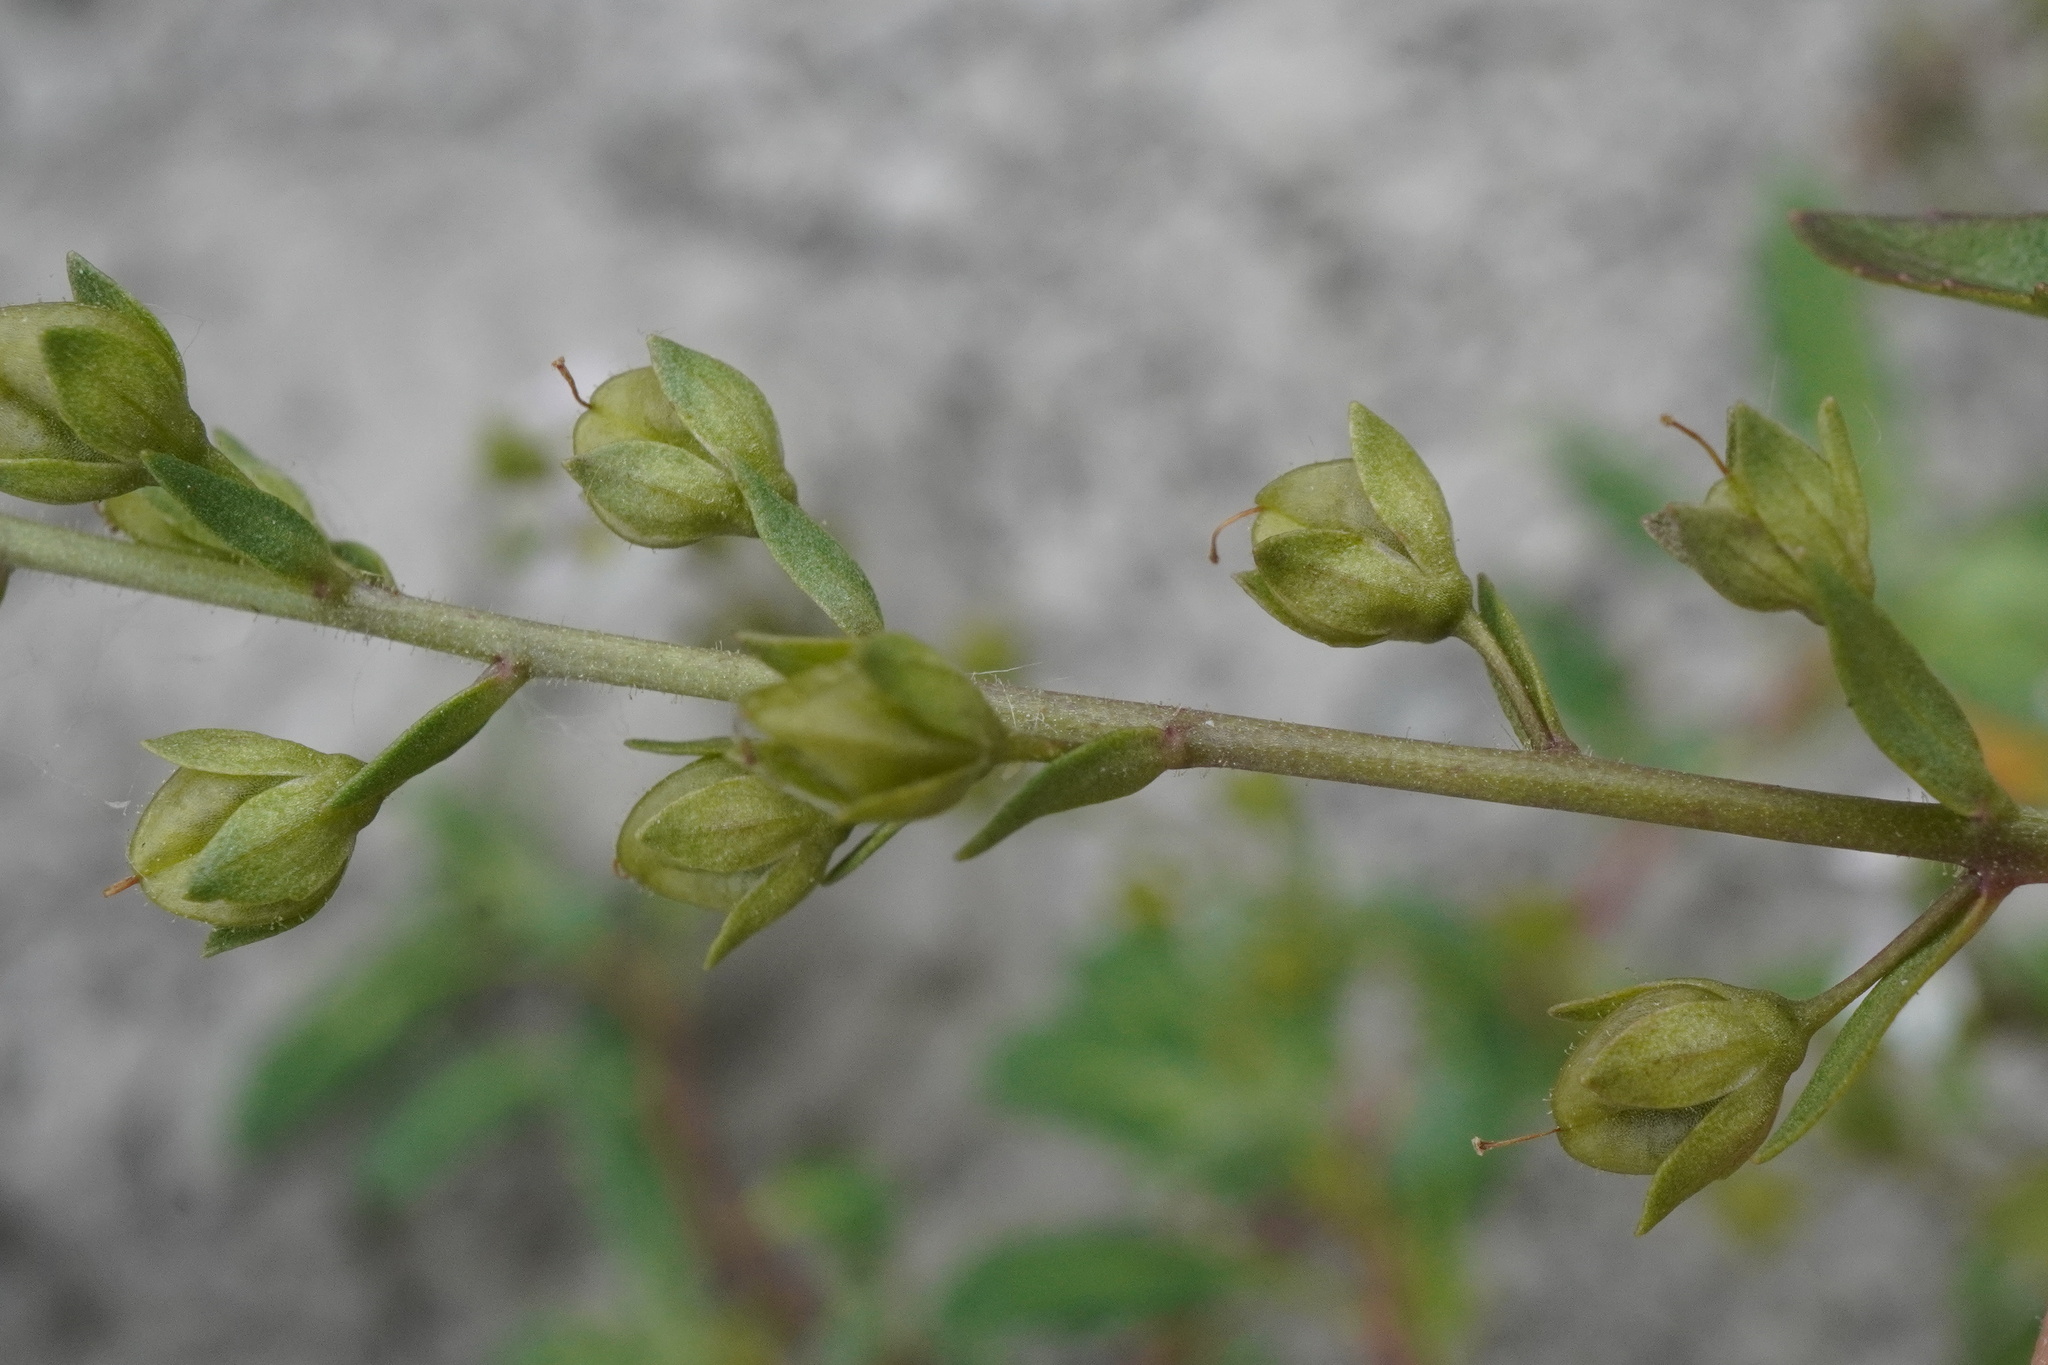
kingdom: Plantae
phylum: Tracheophyta
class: Magnoliopsida
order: Lamiales
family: Plantaginaceae
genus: Veronica
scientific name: Veronica catenata
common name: Pink water-speedwell
